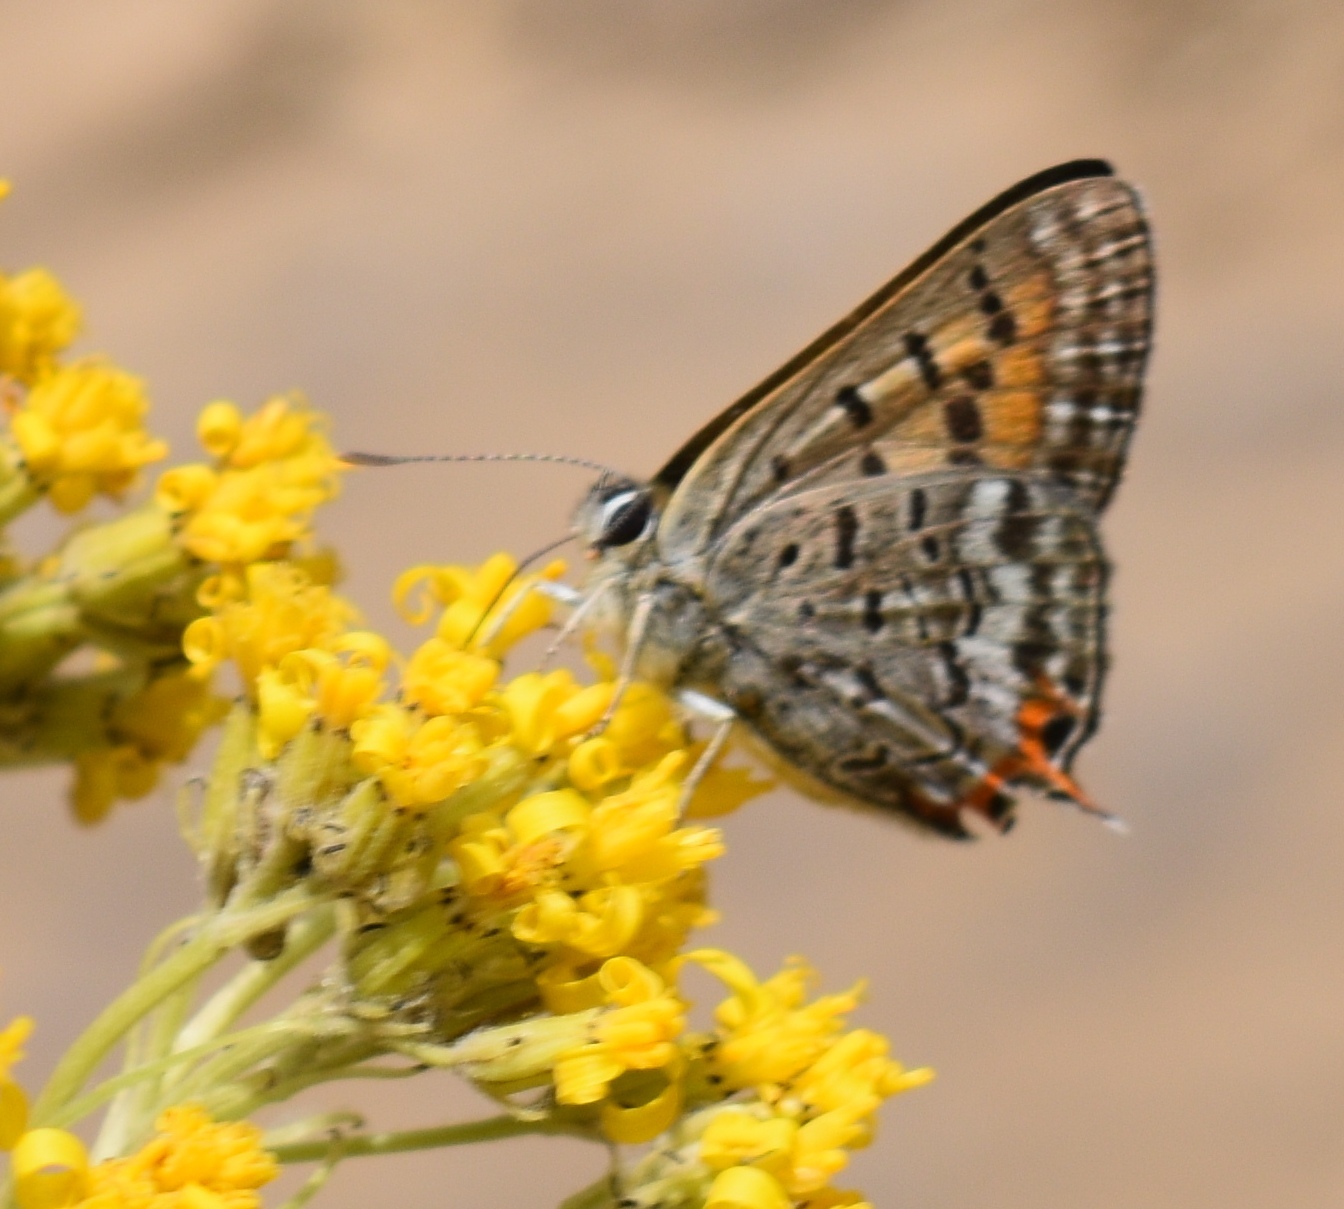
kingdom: Animalia
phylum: Arthropoda
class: Insecta
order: Lepidoptera
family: Lycaenidae
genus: Tharsalea
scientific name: Tharsalea arota
